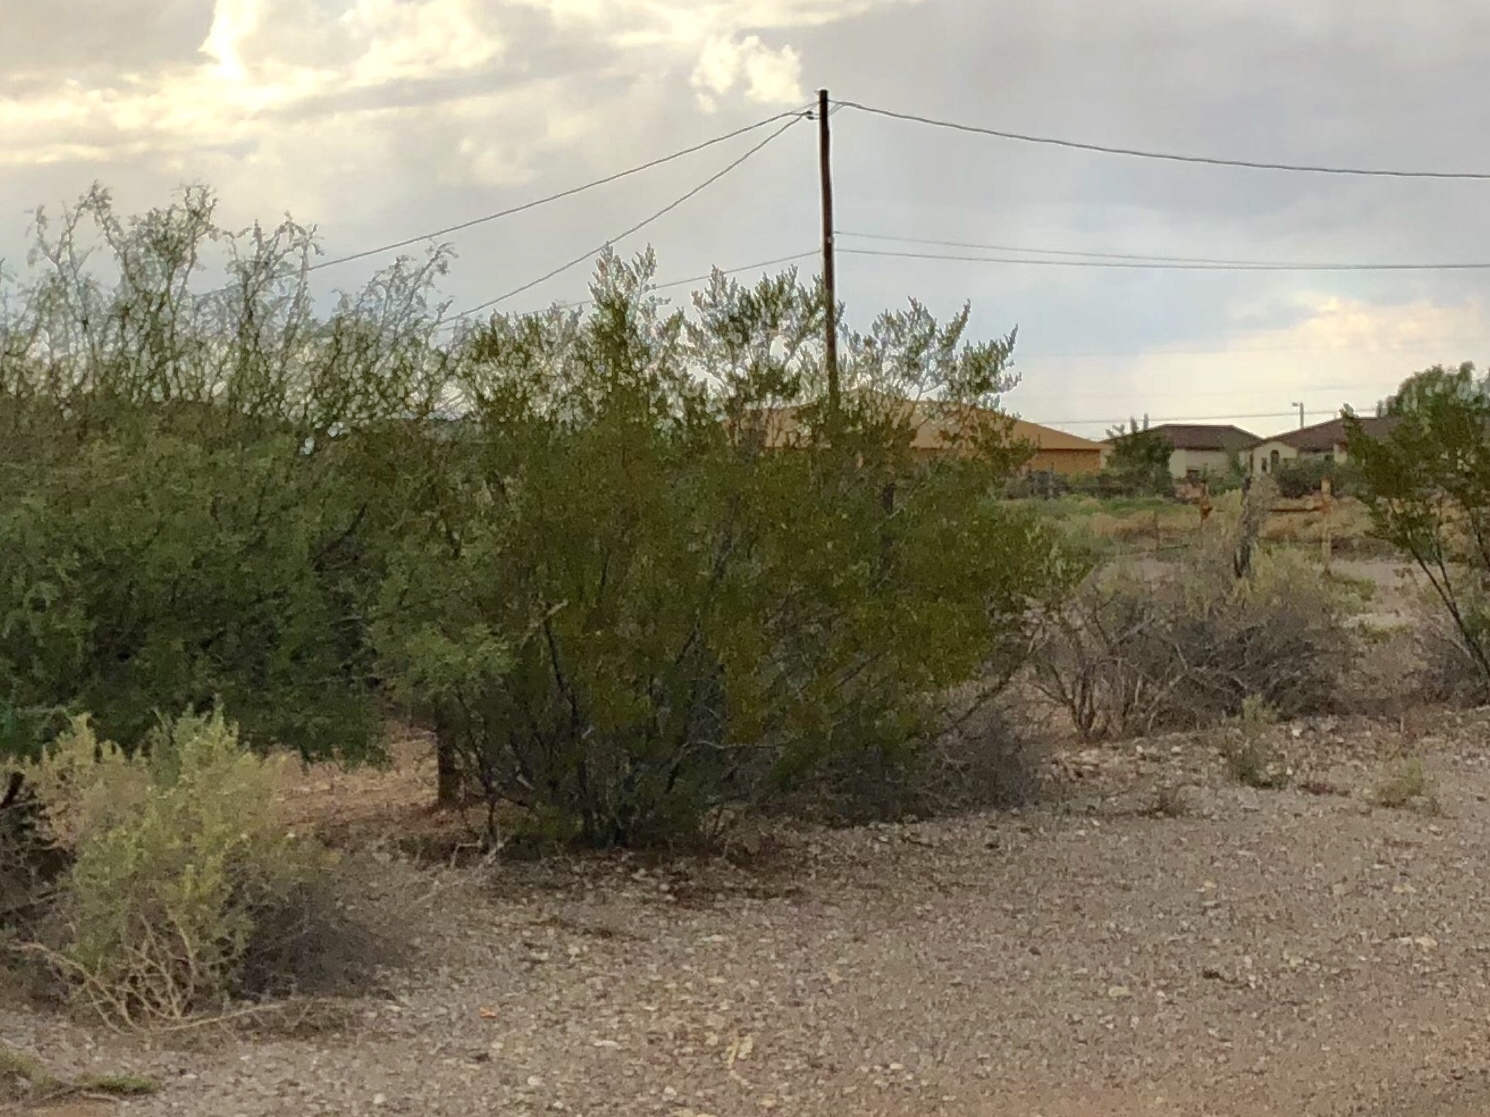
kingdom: Plantae
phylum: Tracheophyta
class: Magnoliopsida
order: Zygophyllales
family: Zygophyllaceae
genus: Larrea
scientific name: Larrea tridentata
